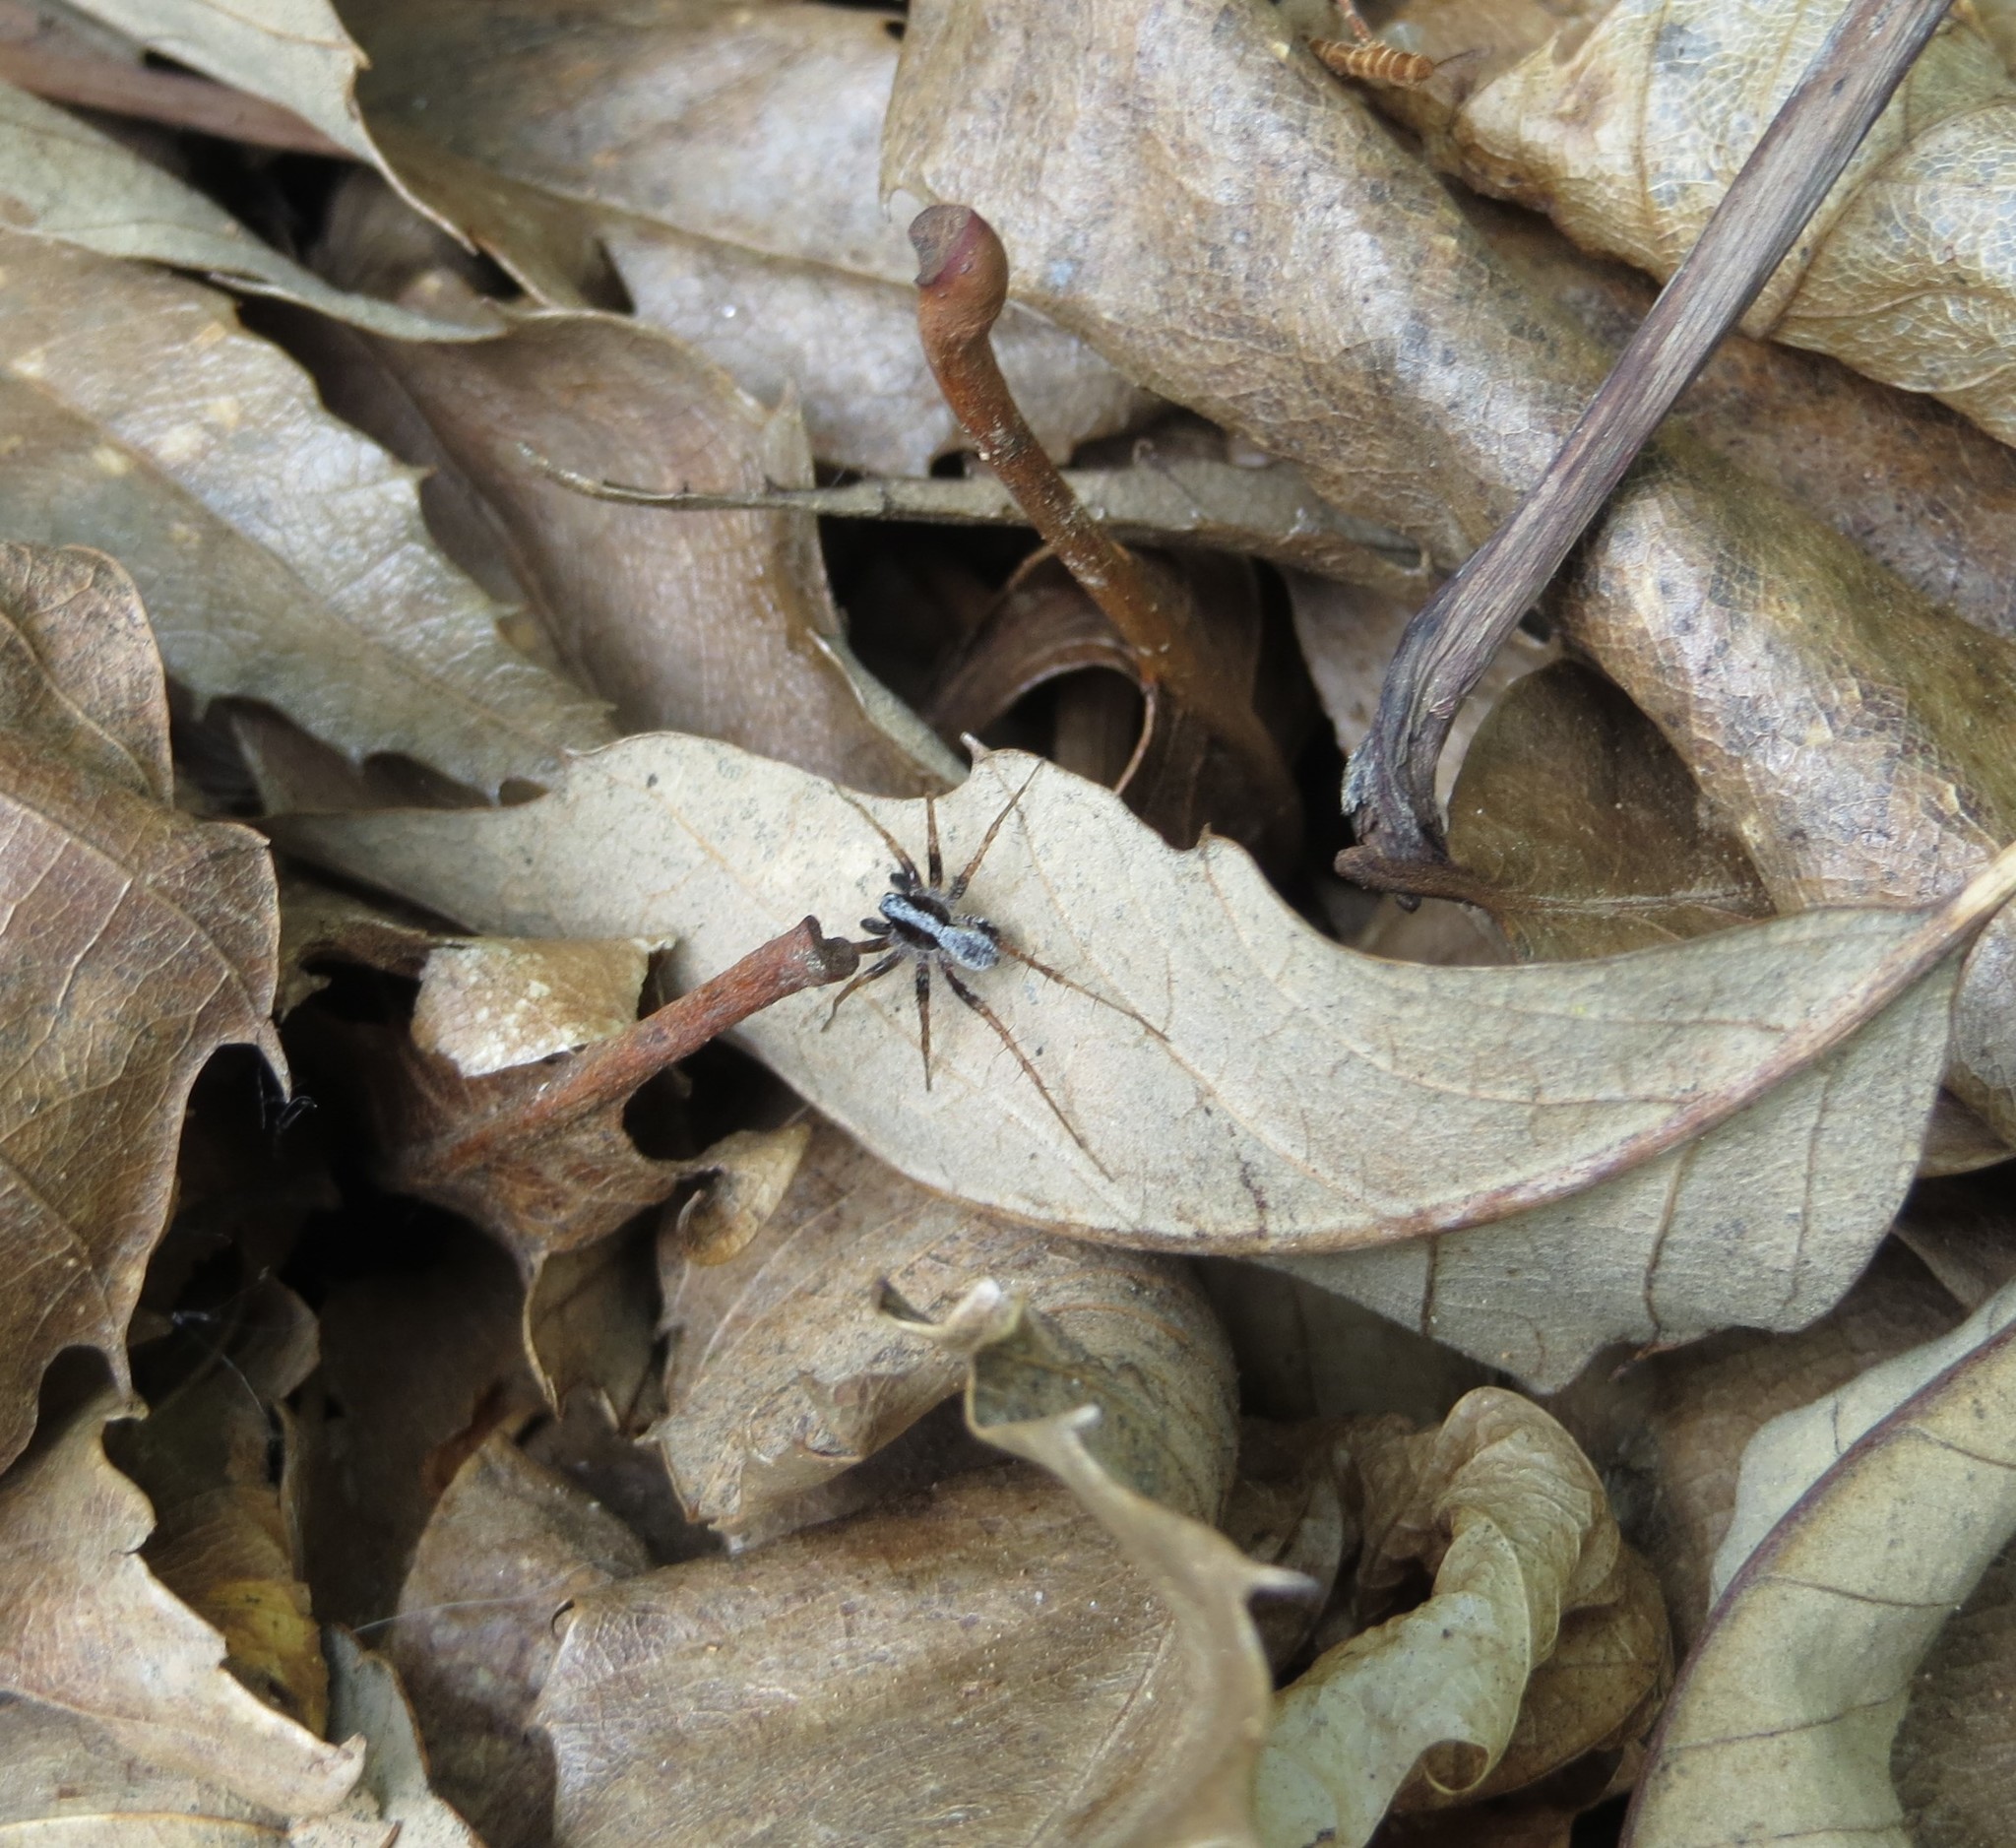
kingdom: Animalia
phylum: Arthropoda
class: Arachnida
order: Araneae
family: Lycosidae
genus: Pardosa
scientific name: Pardosa
